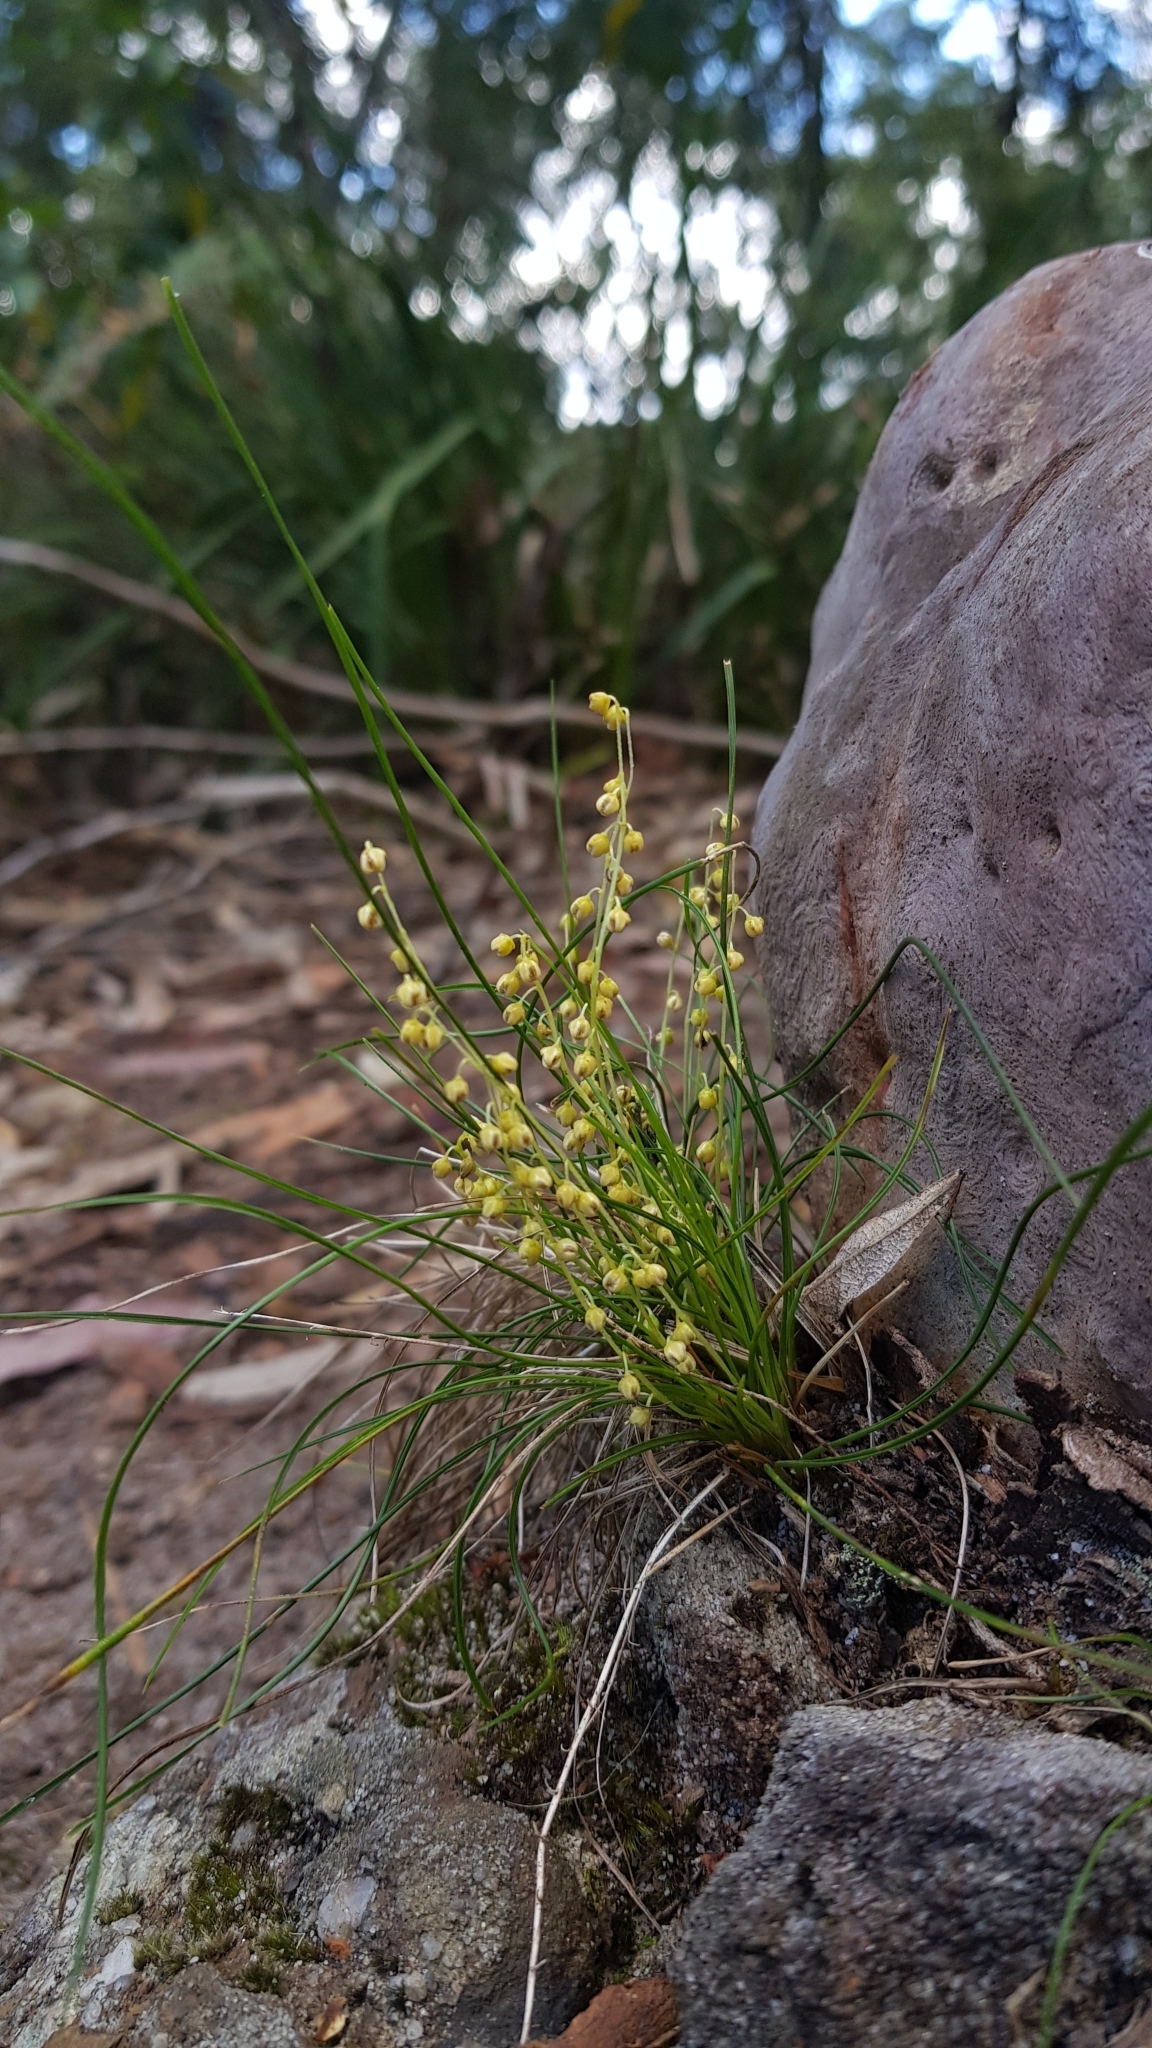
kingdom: Plantae
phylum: Tracheophyta
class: Liliopsida
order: Asparagales
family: Asparagaceae
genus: Lomandra
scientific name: Lomandra filiformis
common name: Wattle mat-rush
